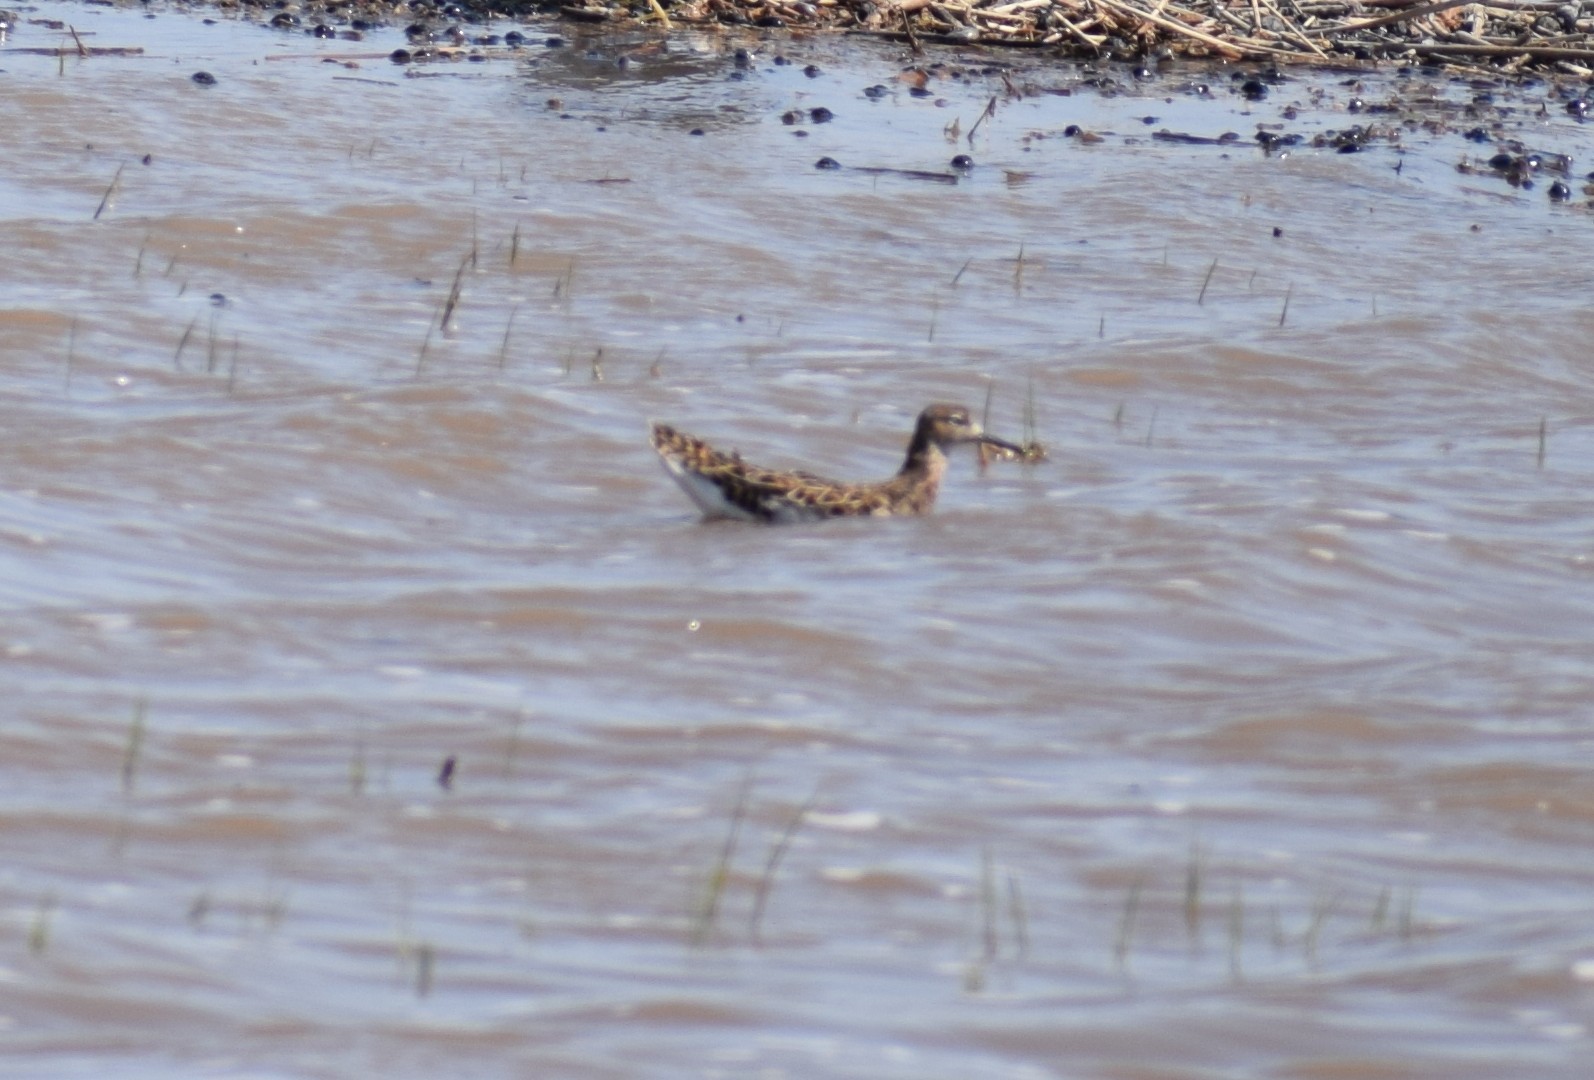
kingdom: Animalia
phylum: Chordata
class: Aves
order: Charadriiformes
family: Scolopacidae
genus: Calidris
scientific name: Calidris pugnax
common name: Ruff
